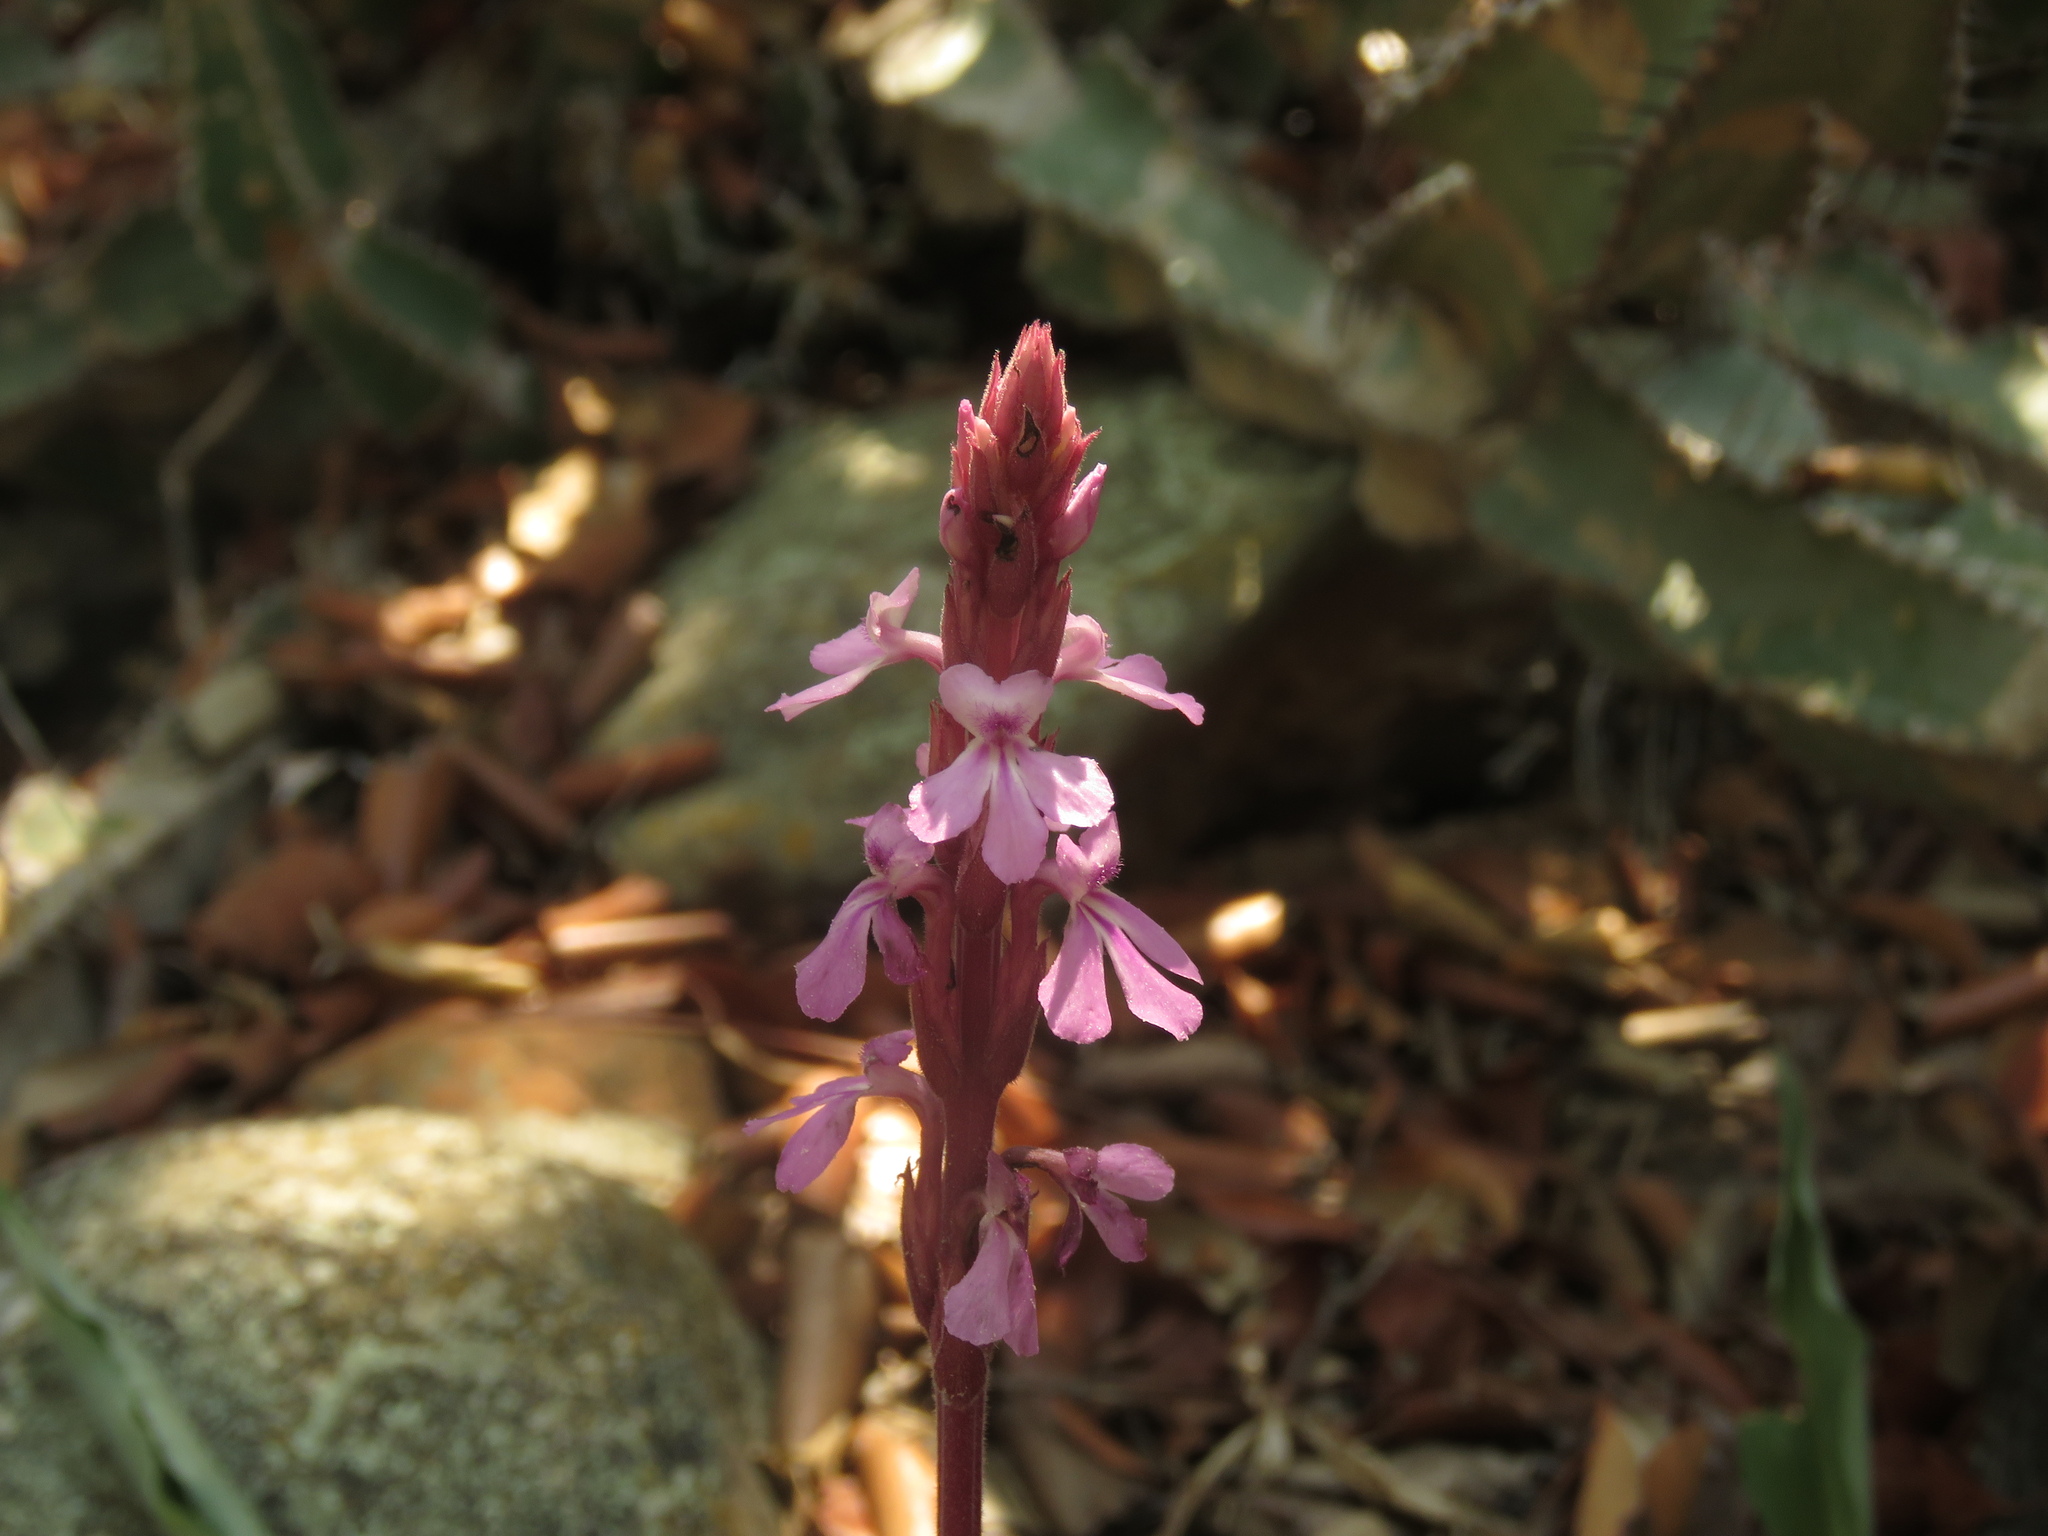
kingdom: Plantae
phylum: Tracheophyta
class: Magnoliopsida
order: Lamiales
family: Orobanchaceae
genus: Striga
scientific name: Striga gesnerioides
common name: Cowpea witchweed
